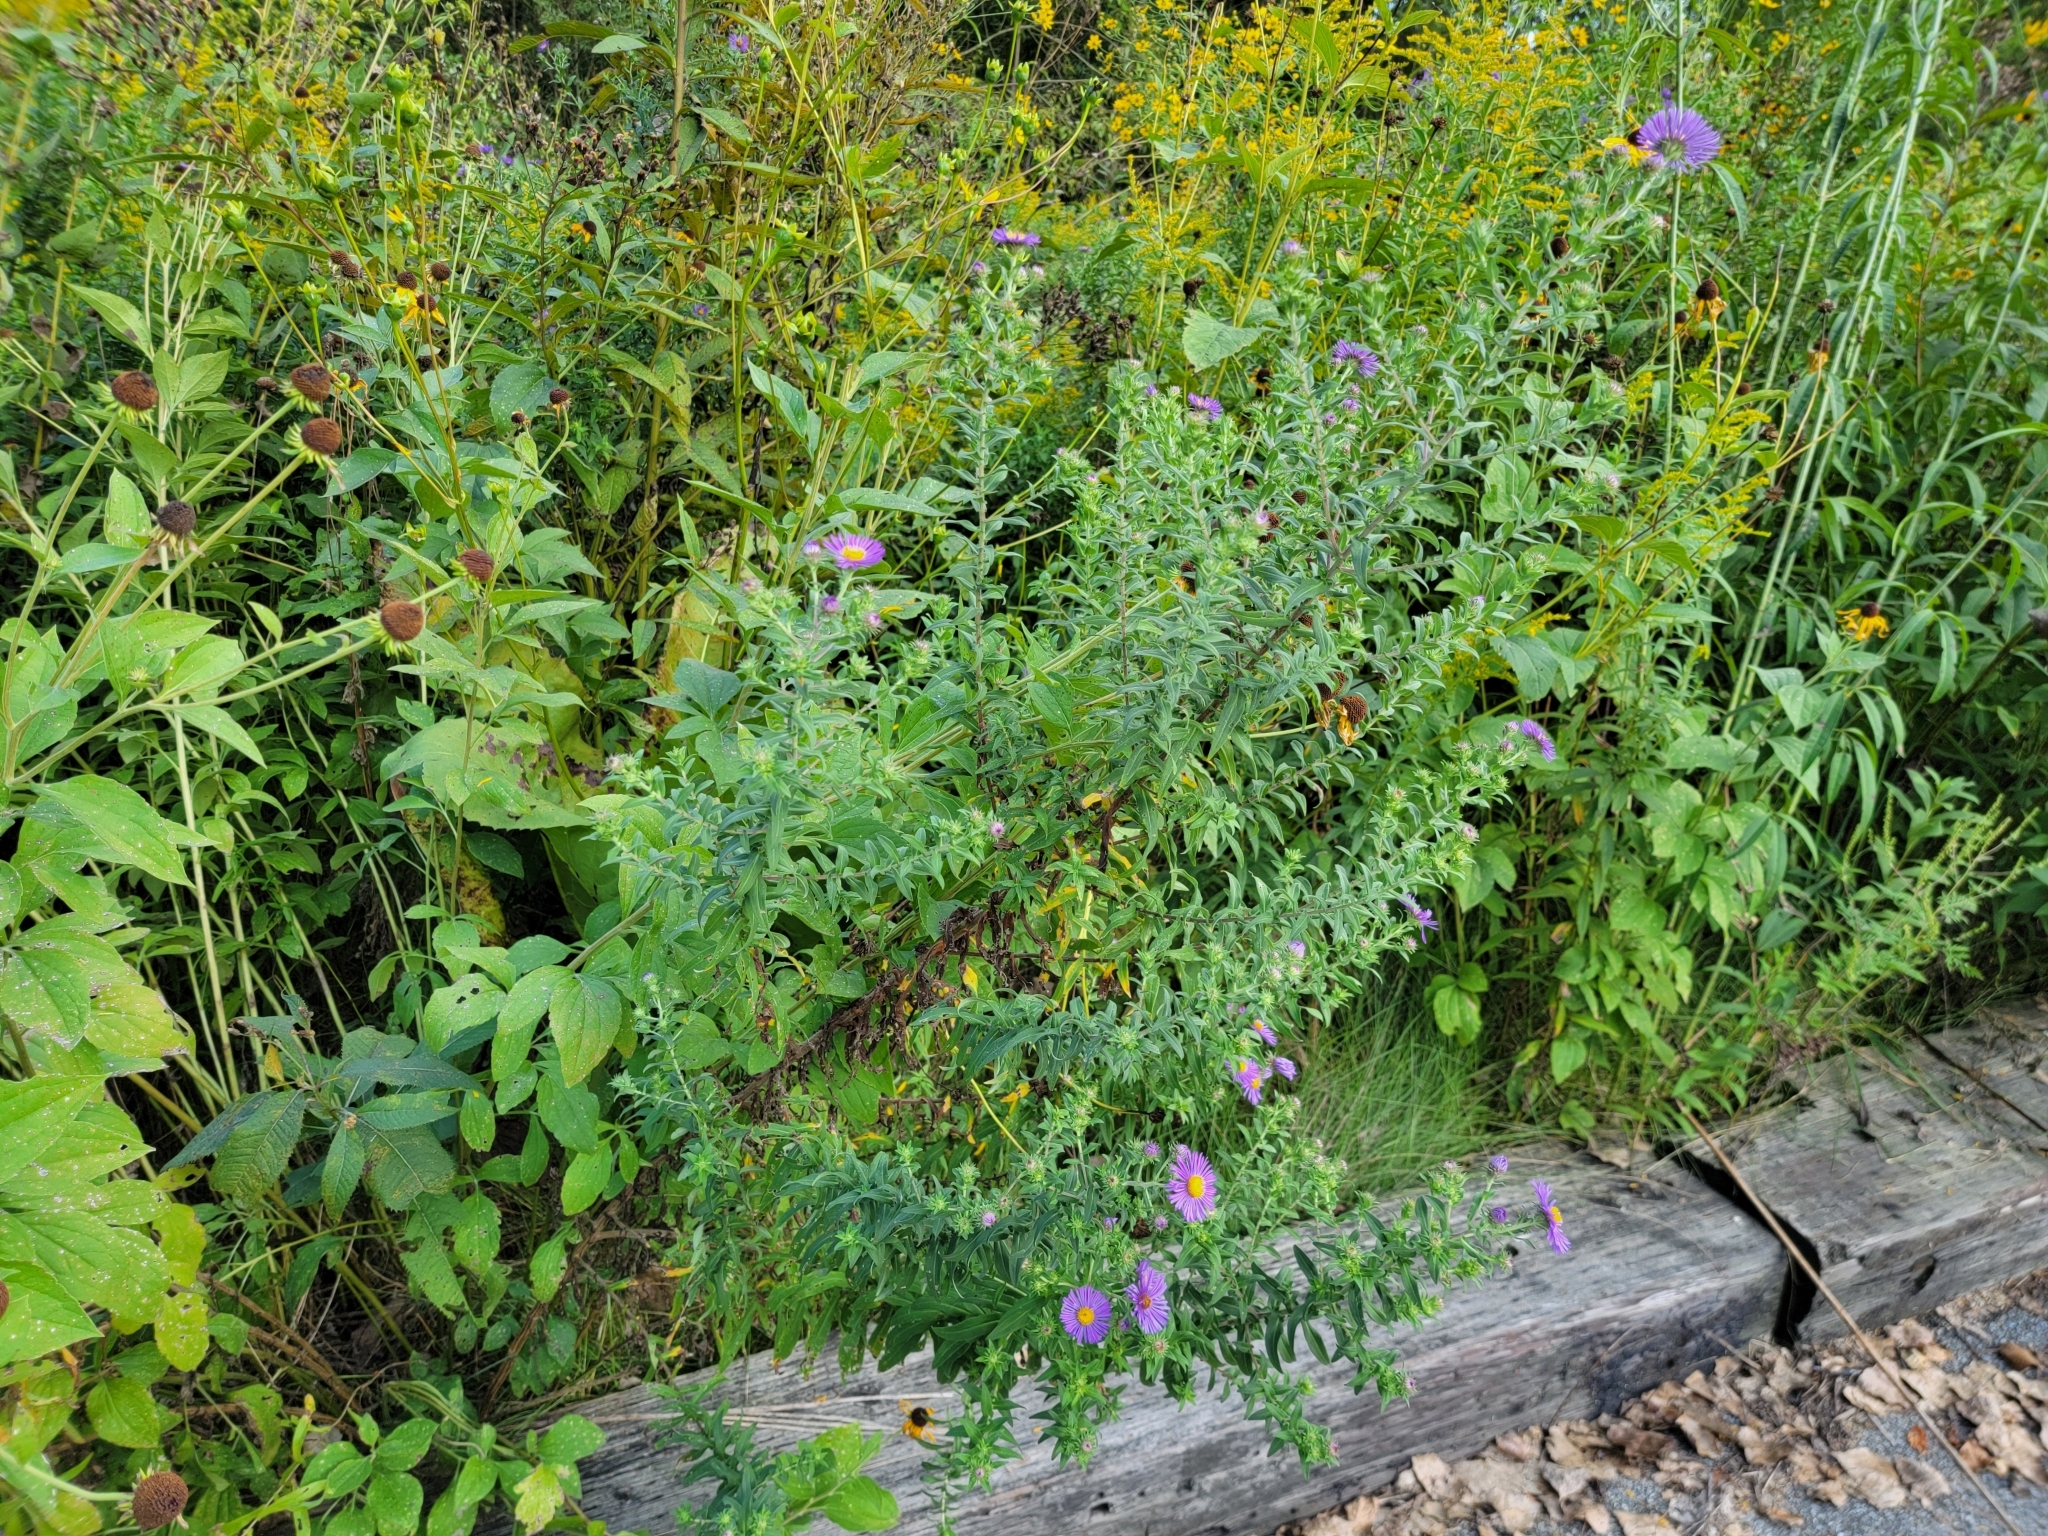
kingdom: Plantae
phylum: Tracheophyta
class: Magnoliopsida
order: Asterales
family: Asteraceae
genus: Symphyotrichum
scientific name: Symphyotrichum novae-angliae
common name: Michaelmas daisy
